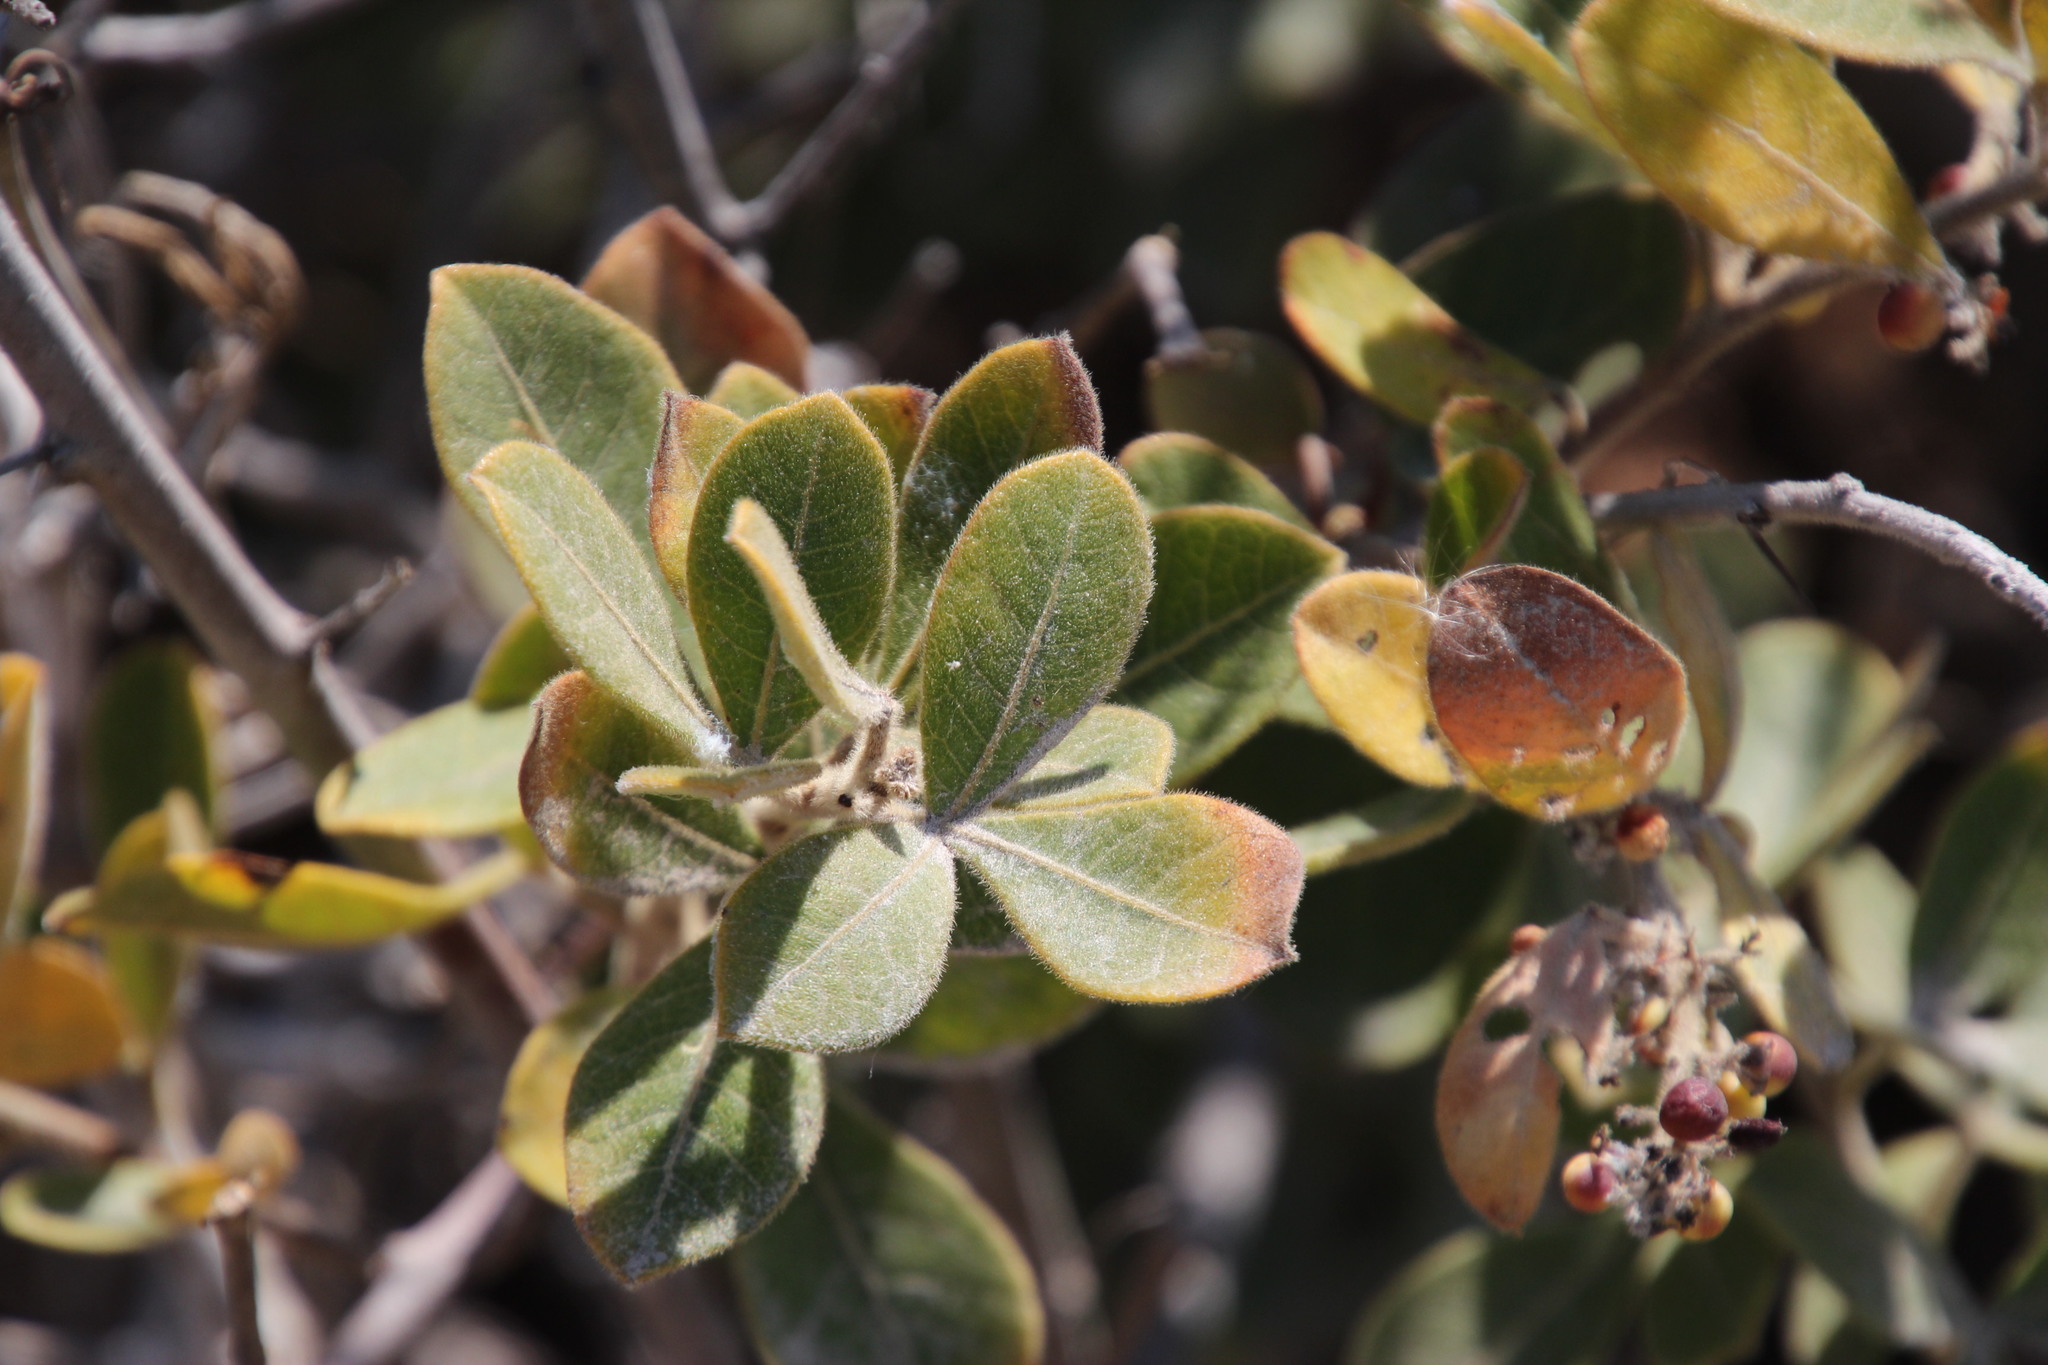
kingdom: Plantae
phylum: Tracheophyta
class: Magnoliopsida
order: Sapindales
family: Anacardiaceae
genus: Searsia
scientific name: Searsia laevigata
